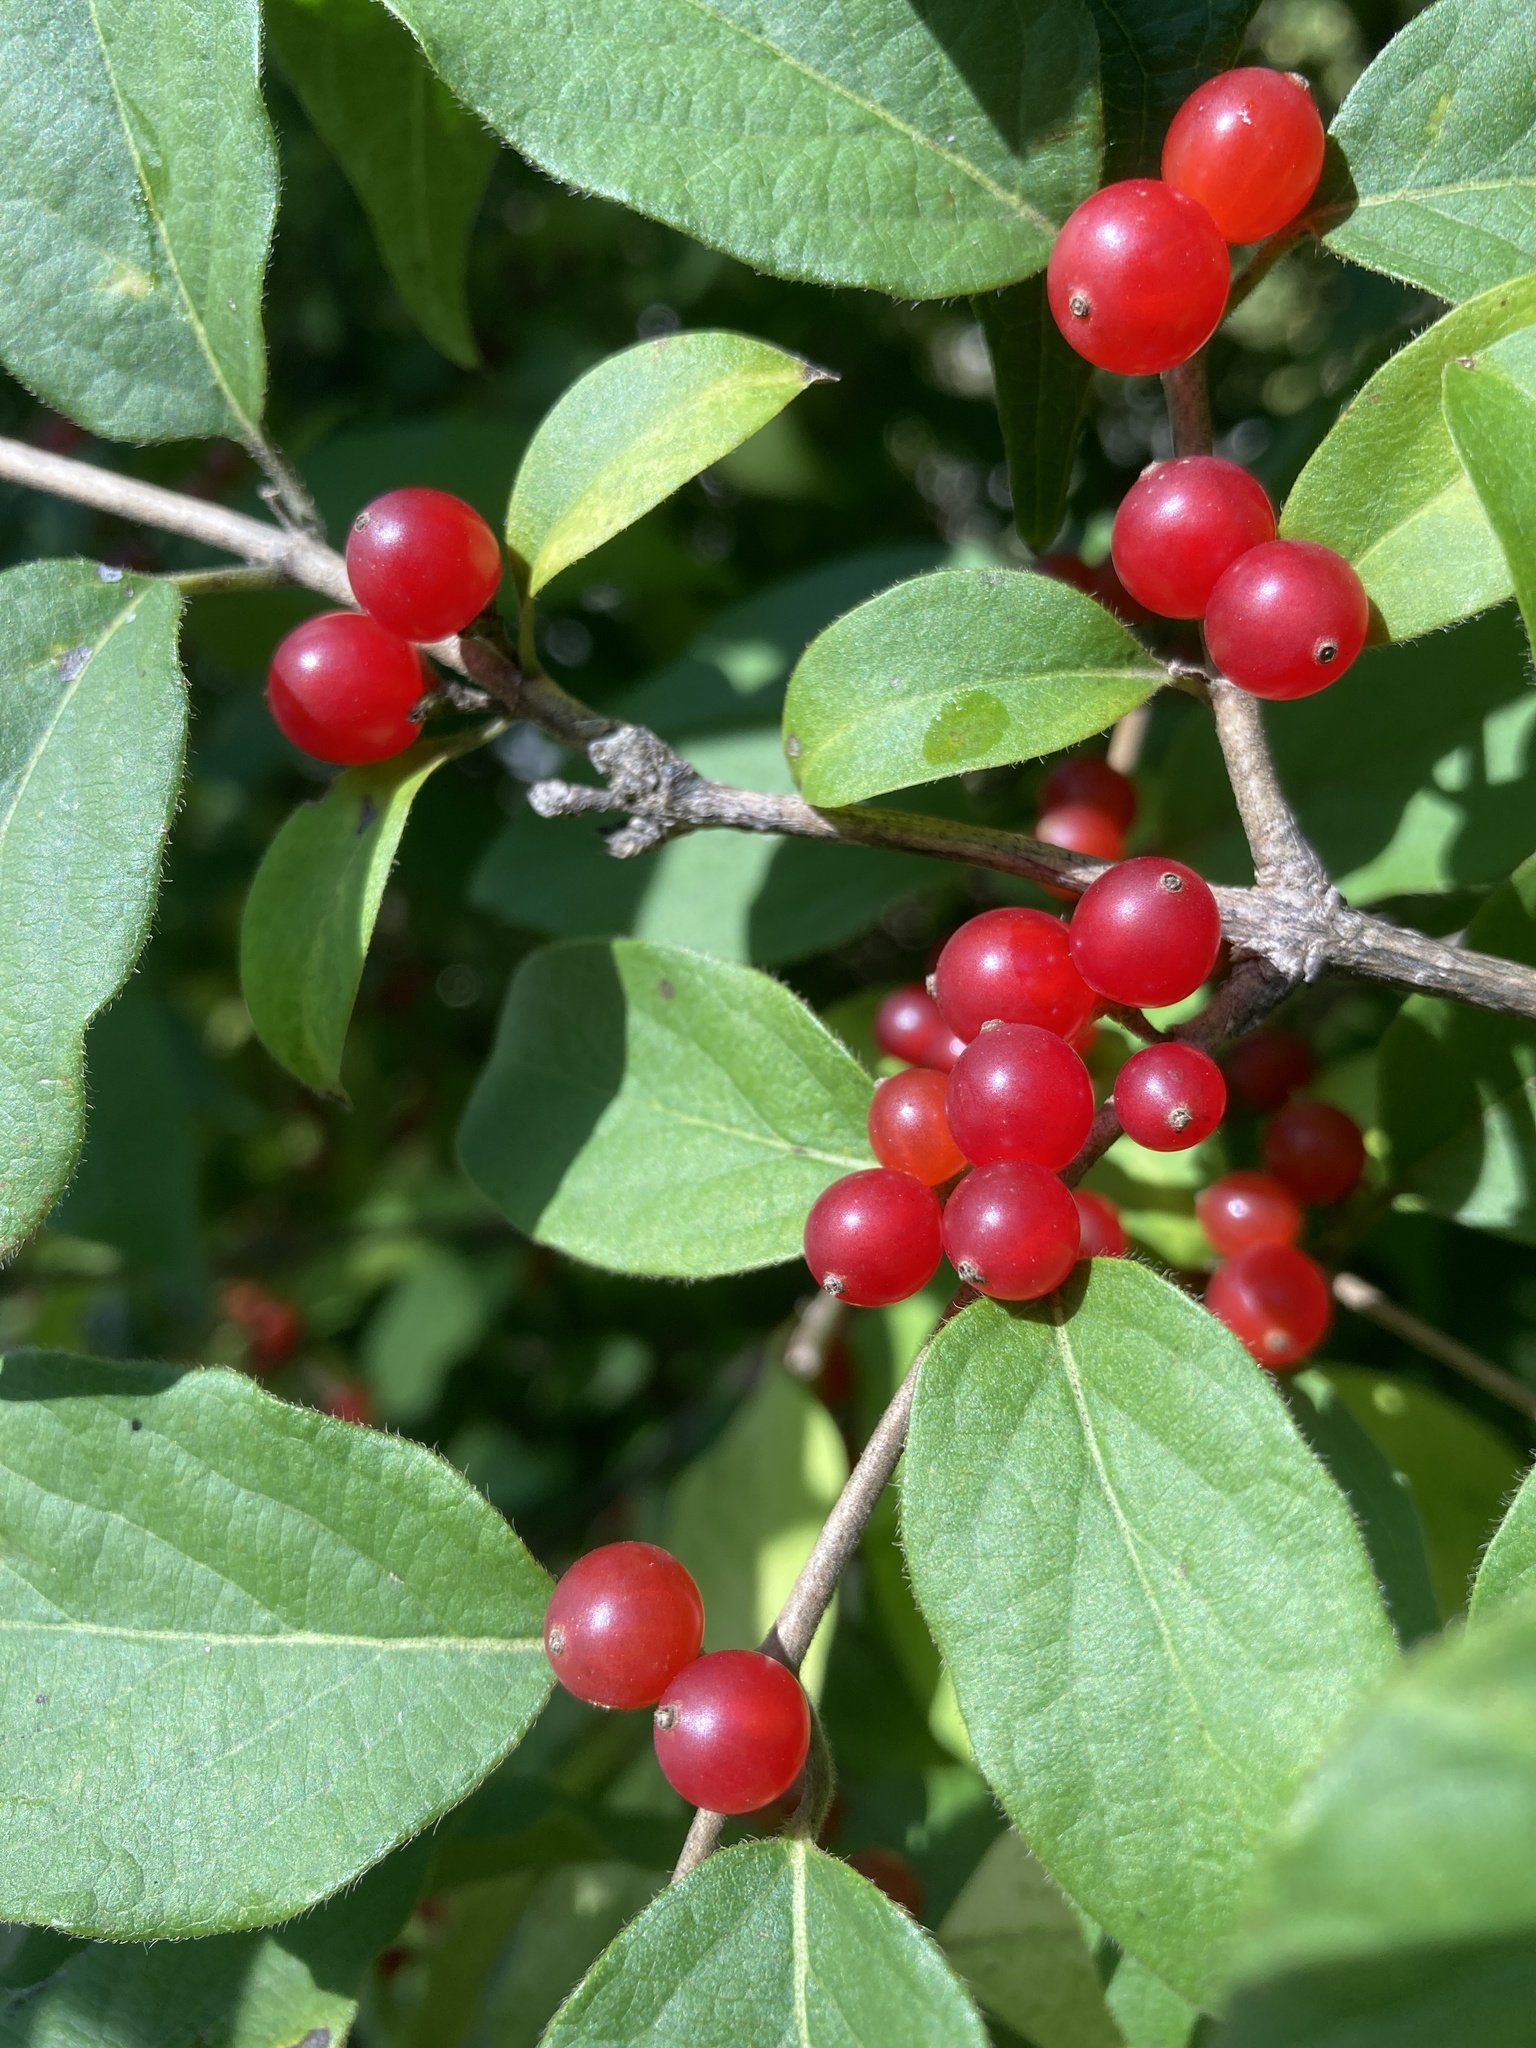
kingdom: Plantae
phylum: Tracheophyta
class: Magnoliopsida
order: Dipsacales
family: Caprifoliaceae
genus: Lonicera
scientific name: Lonicera maackii
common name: Amur honeysuckle
